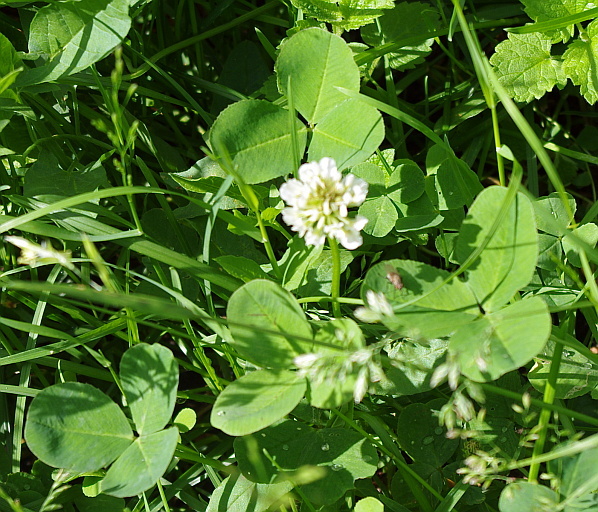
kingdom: Plantae
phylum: Tracheophyta
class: Magnoliopsida
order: Fabales
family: Fabaceae
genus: Trifolium
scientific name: Trifolium repens
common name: White clover
